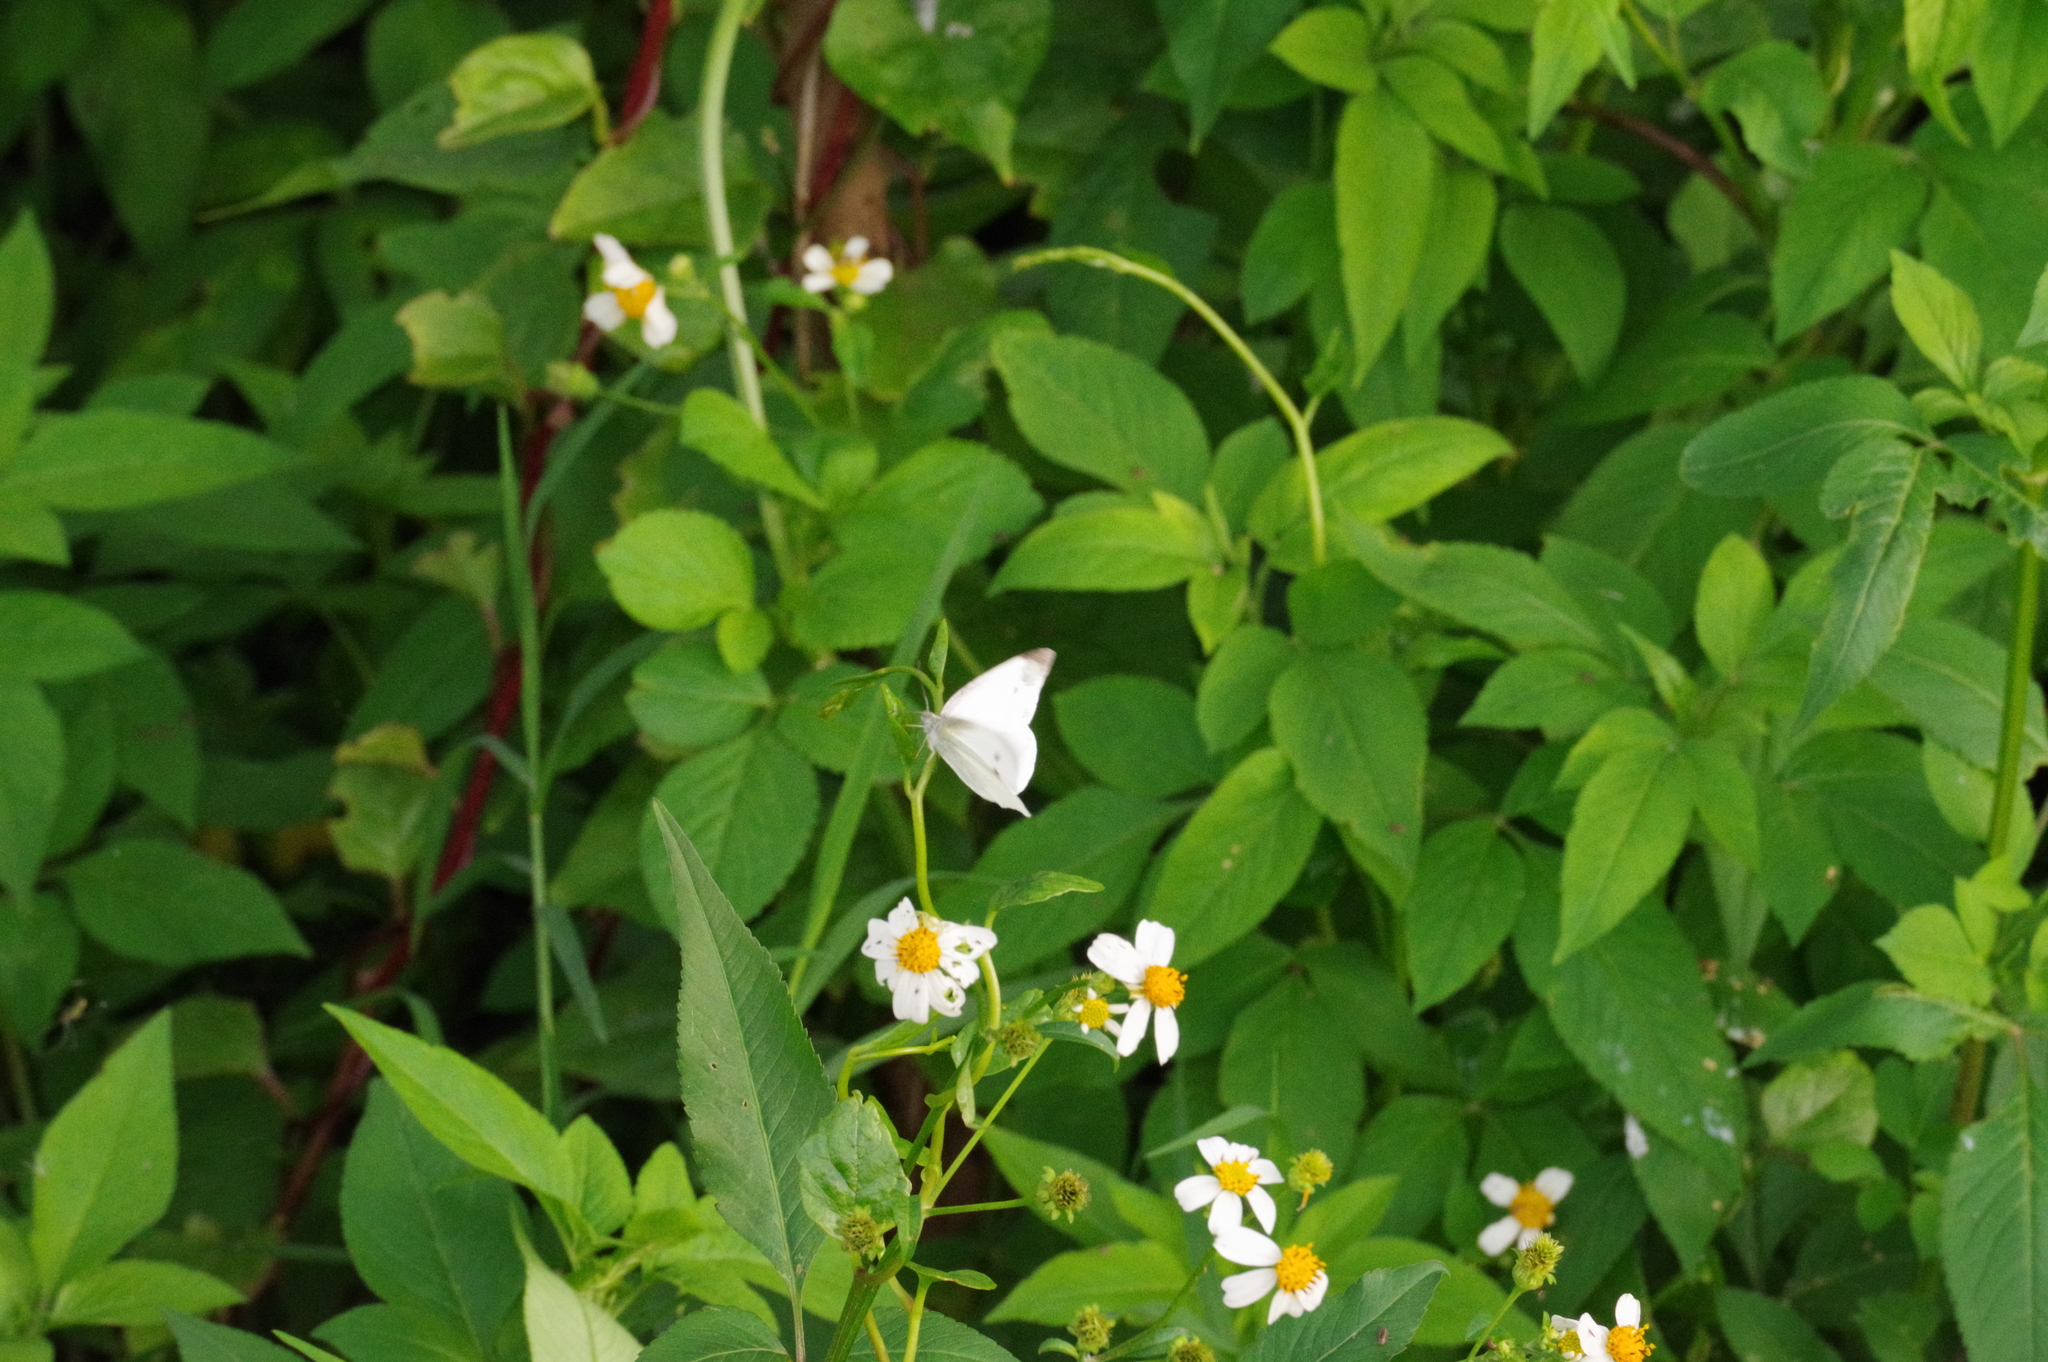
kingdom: Animalia
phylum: Arthropoda
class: Insecta
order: Lepidoptera
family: Pieridae
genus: Pieris
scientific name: Pieris rapae
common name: Small white
